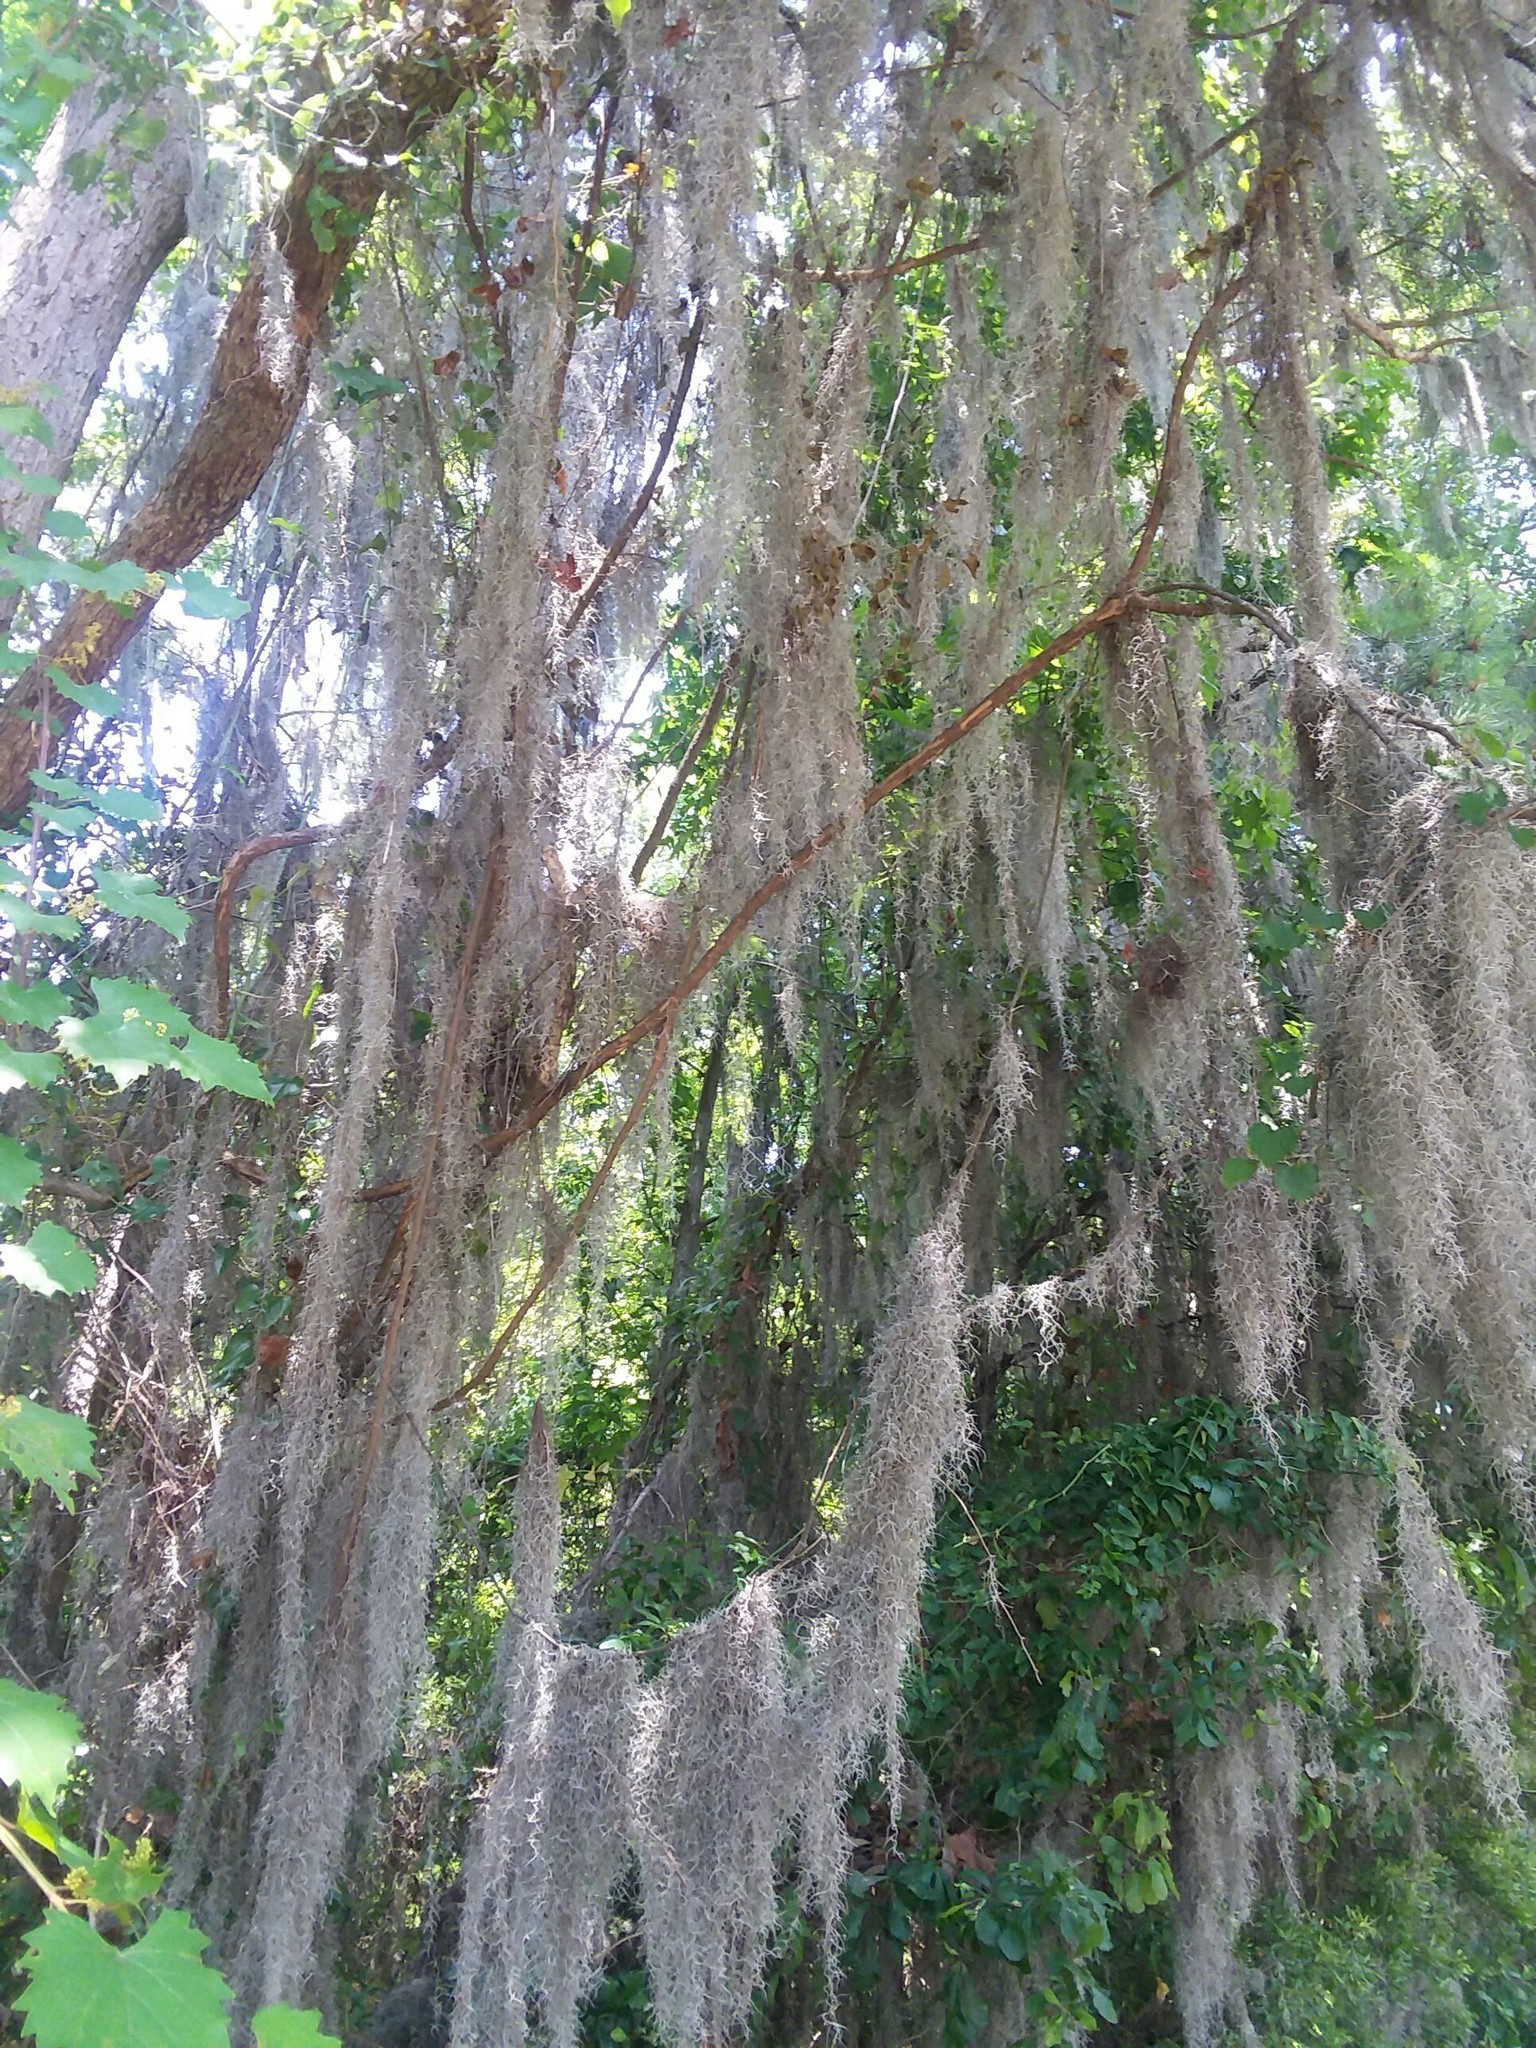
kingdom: Plantae
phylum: Tracheophyta
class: Liliopsida
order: Poales
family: Bromeliaceae
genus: Tillandsia
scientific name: Tillandsia usneoides
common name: Spanish moss
